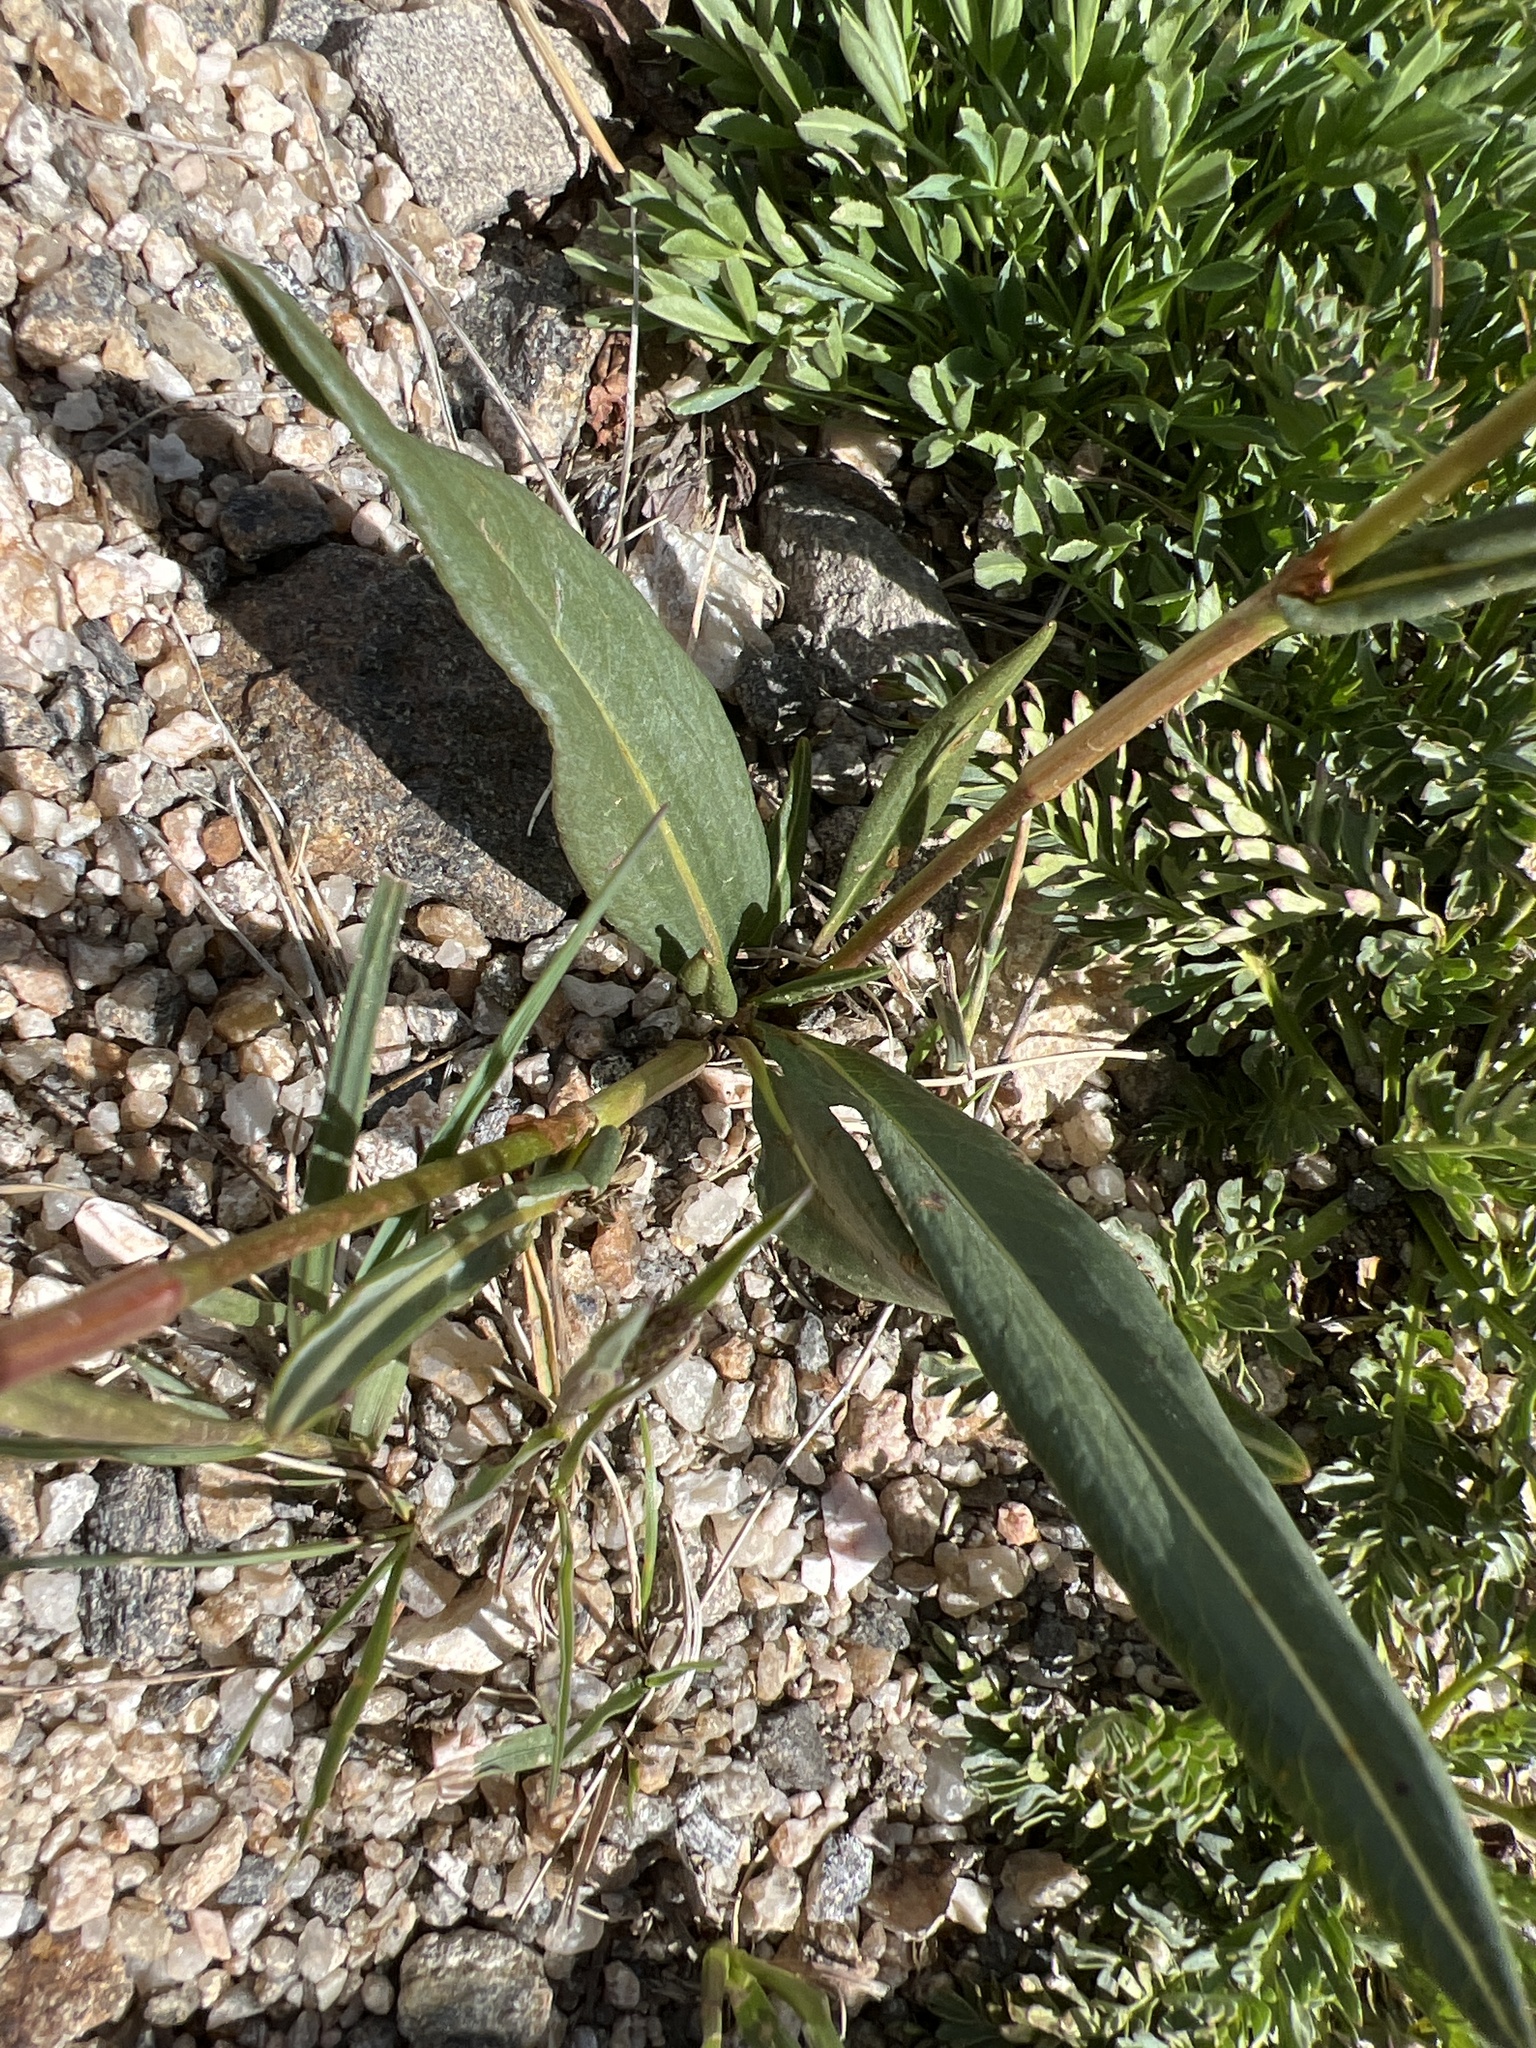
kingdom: Plantae
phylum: Tracheophyta
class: Magnoliopsida
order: Caryophyllales
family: Polygonaceae
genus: Bistorta
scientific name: Bistorta bistortoides
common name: American bistort
